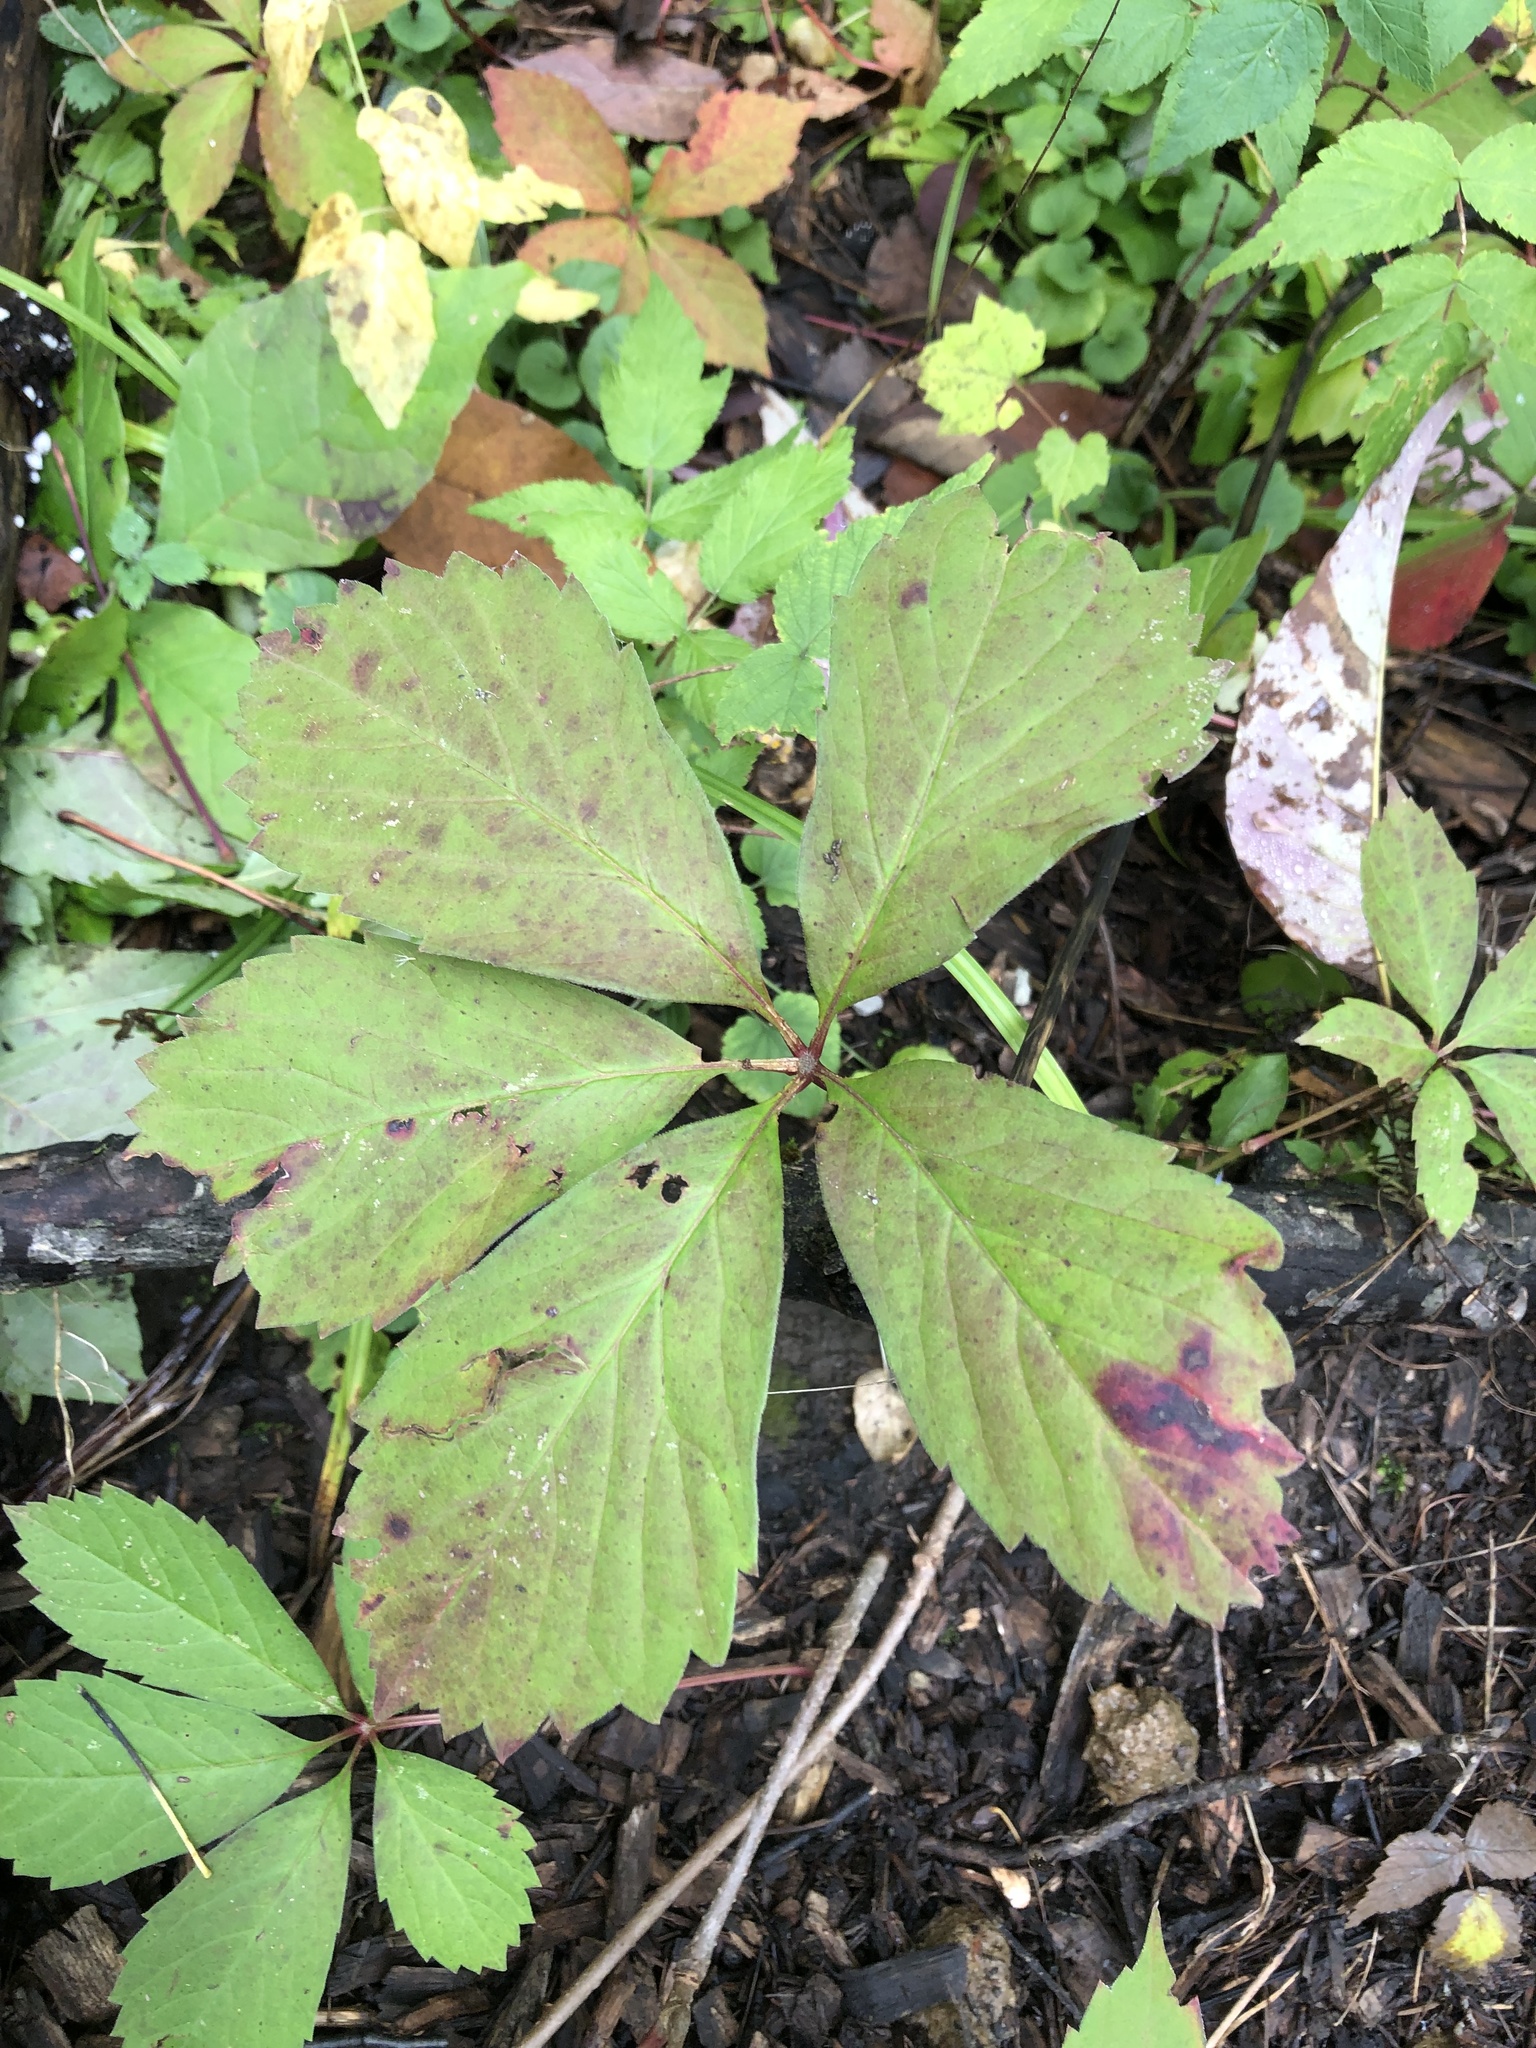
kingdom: Plantae
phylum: Tracheophyta
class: Magnoliopsida
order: Vitales
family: Vitaceae
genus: Parthenocissus
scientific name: Parthenocissus inserta
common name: False virginia-creeper
